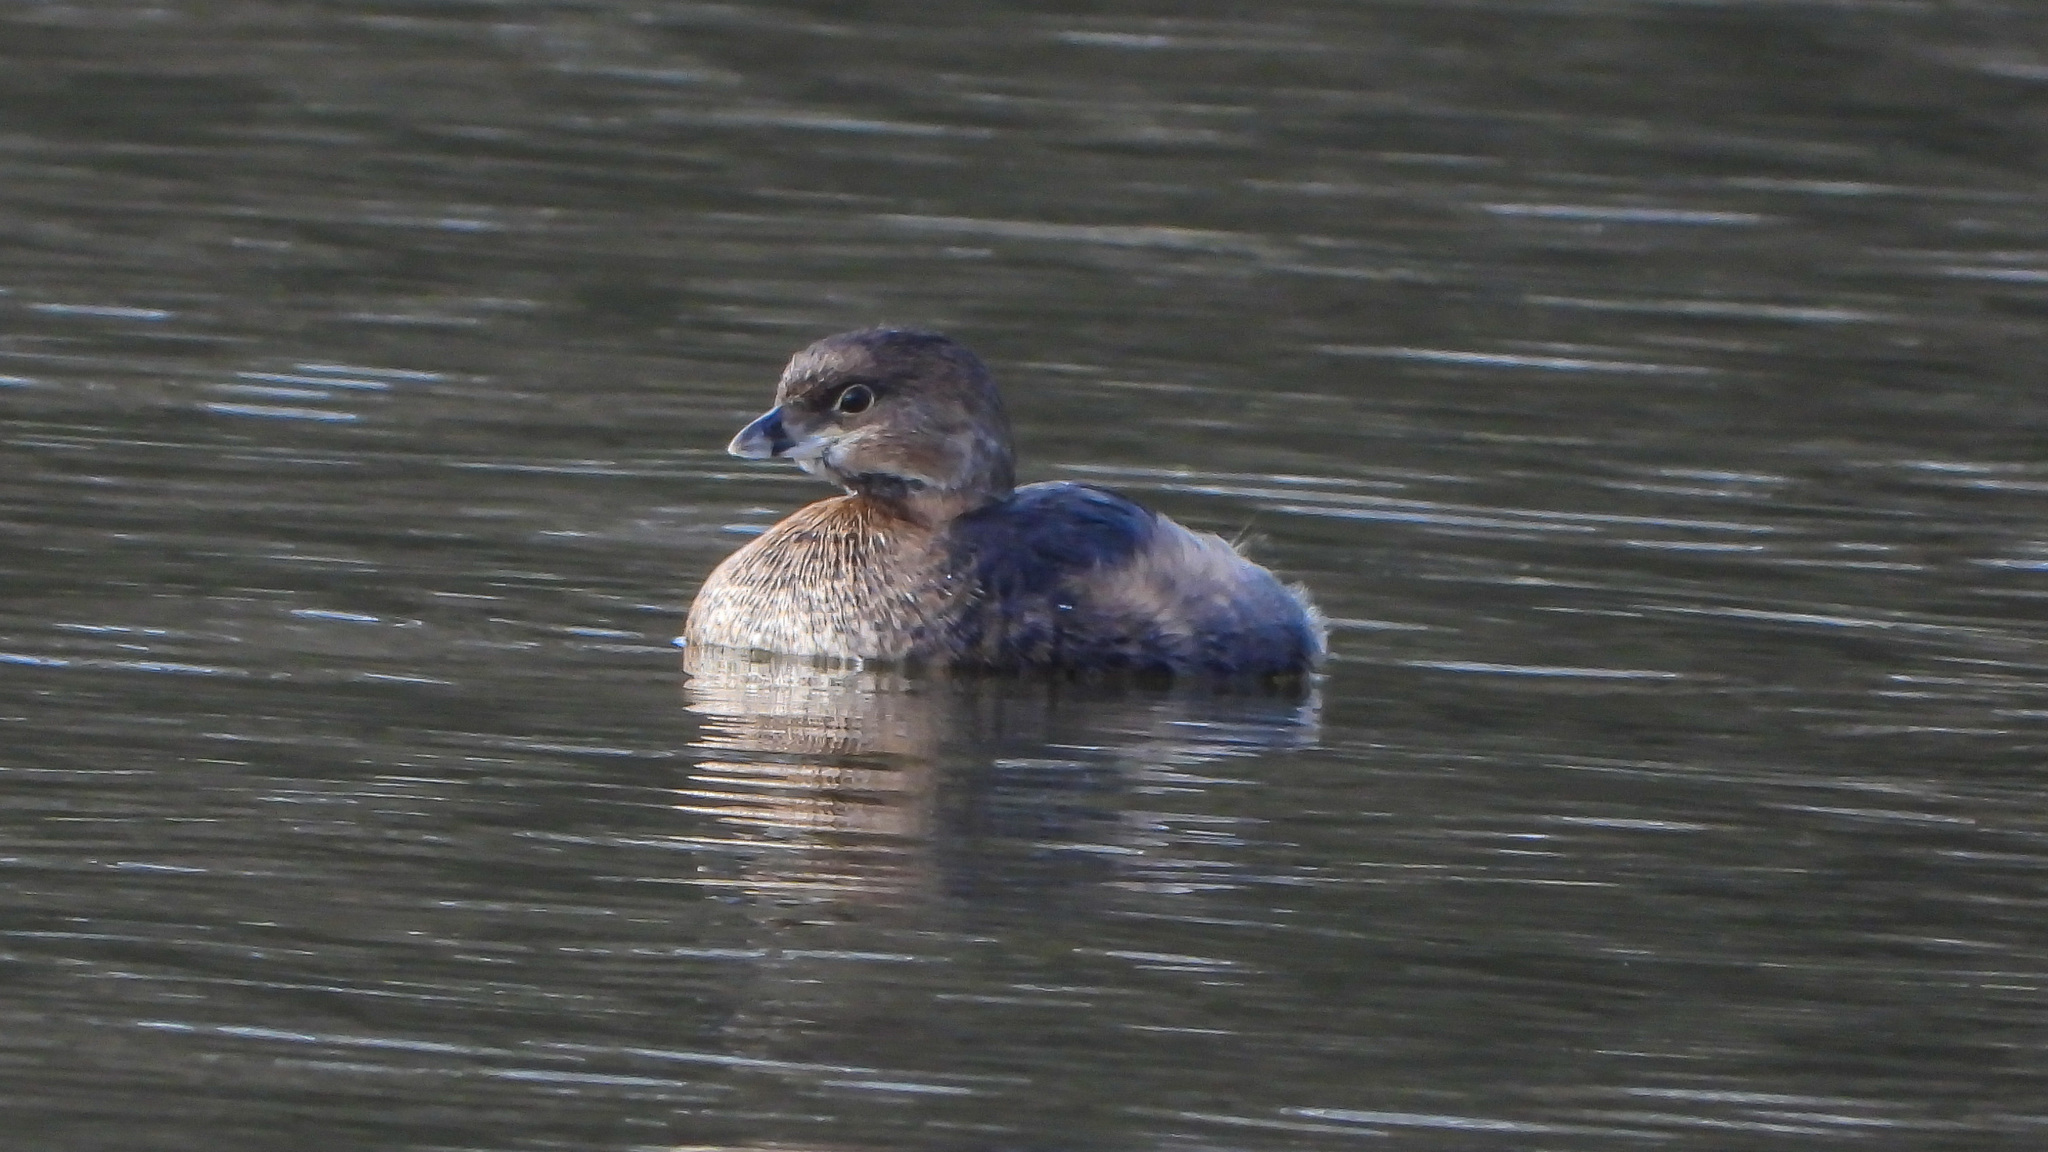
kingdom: Animalia
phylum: Chordata
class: Aves
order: Podicipediformes
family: Podicipedidae
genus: Podilymbus
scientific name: Podilymbus podiceps
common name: Pied-billed grebe
